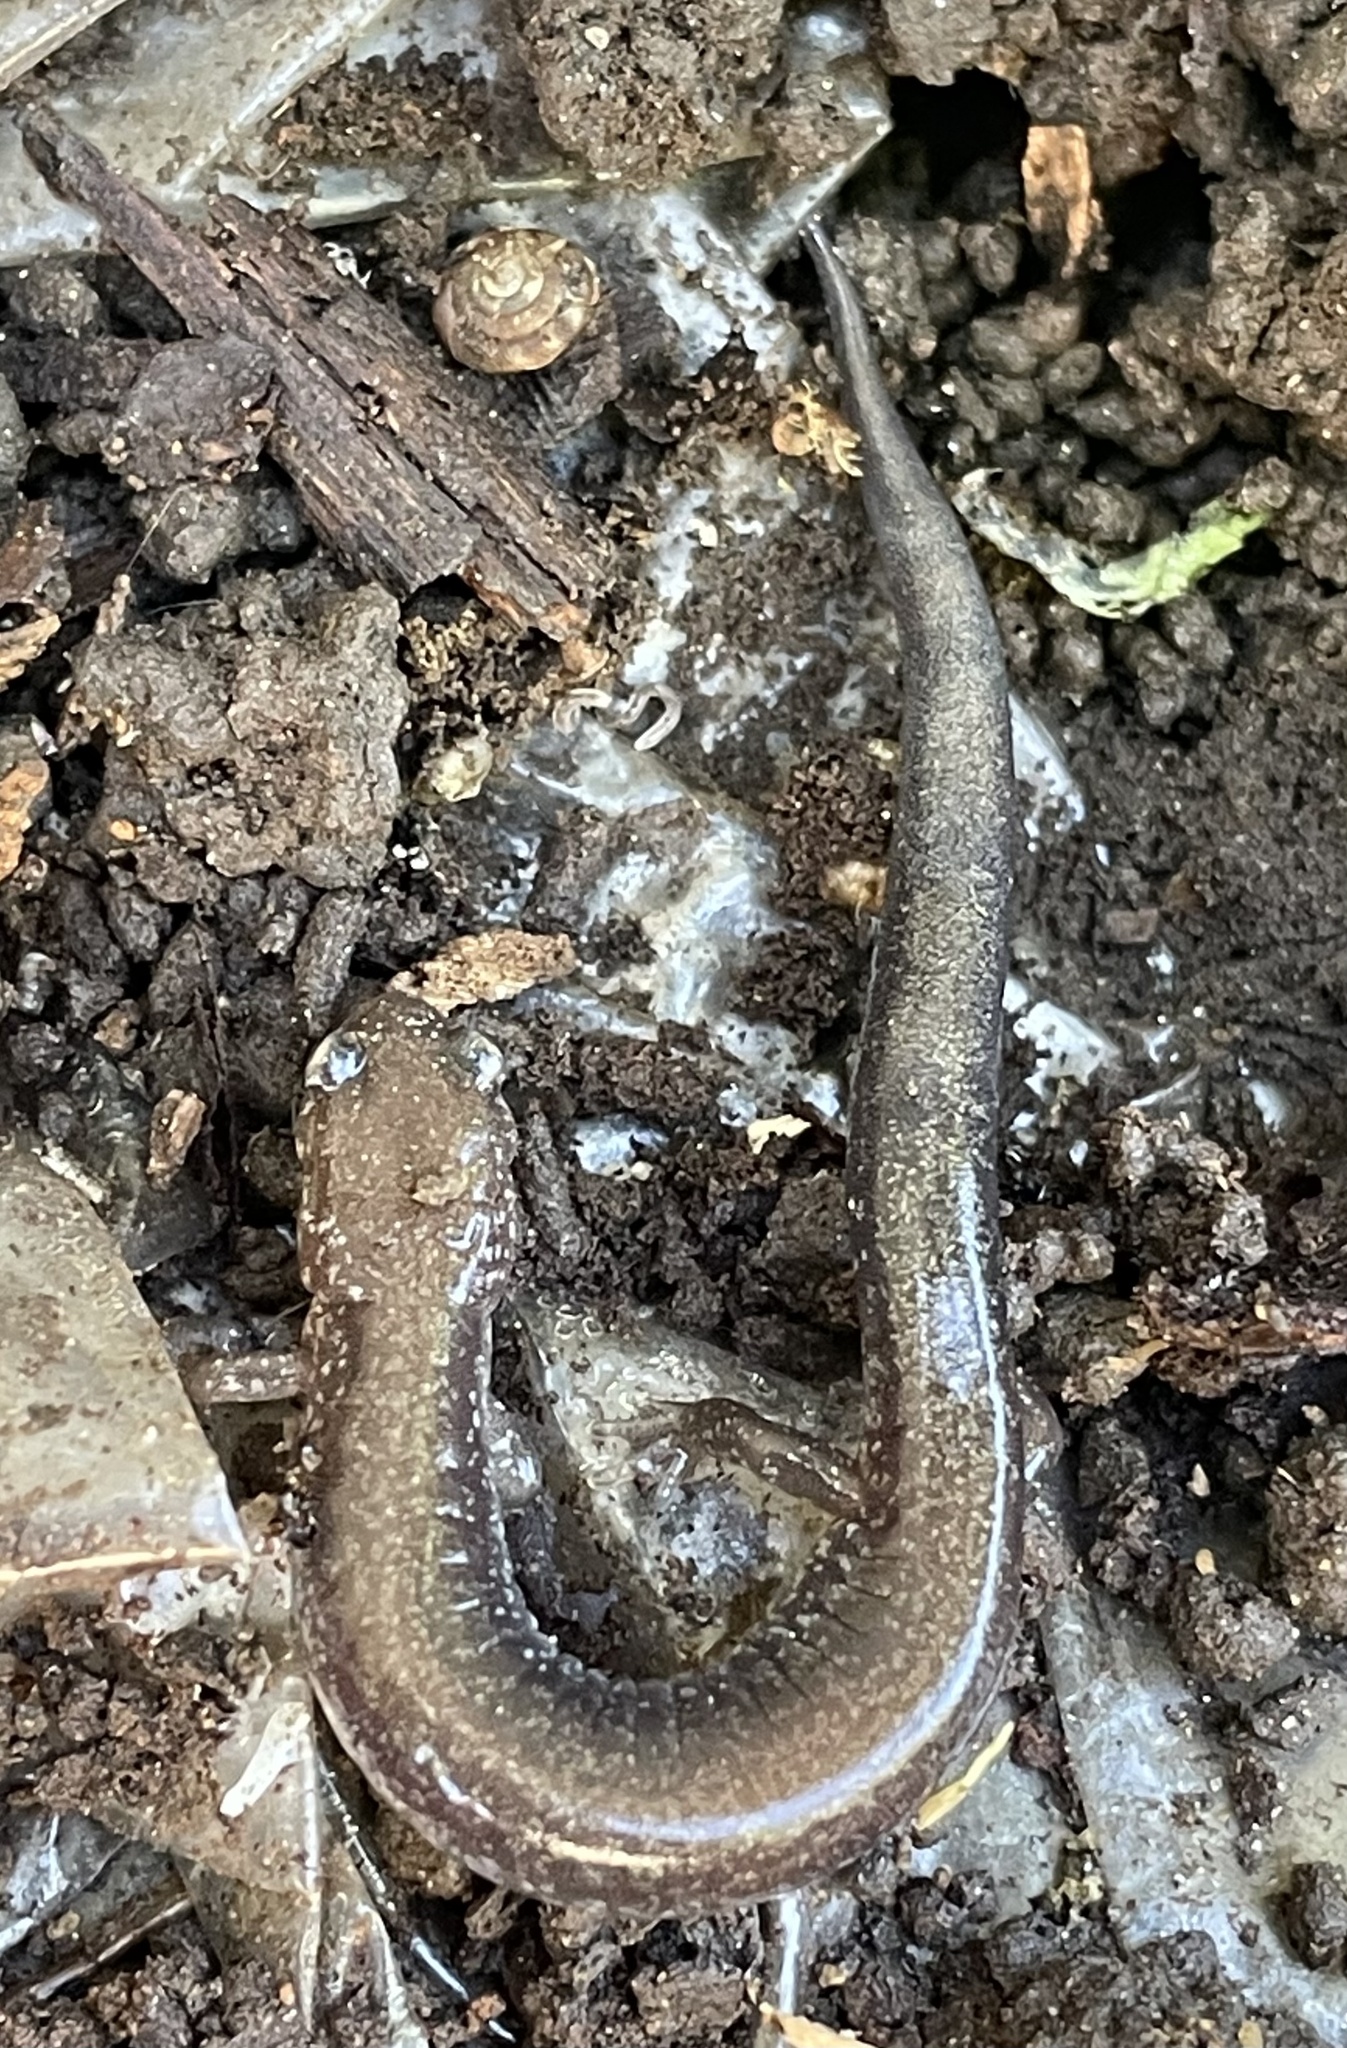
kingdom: Animalia
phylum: Chordata
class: Amphibia
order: Caudata
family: Plethodontidae
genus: Plethodon
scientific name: Plethodon cinereus
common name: Redback salamander
